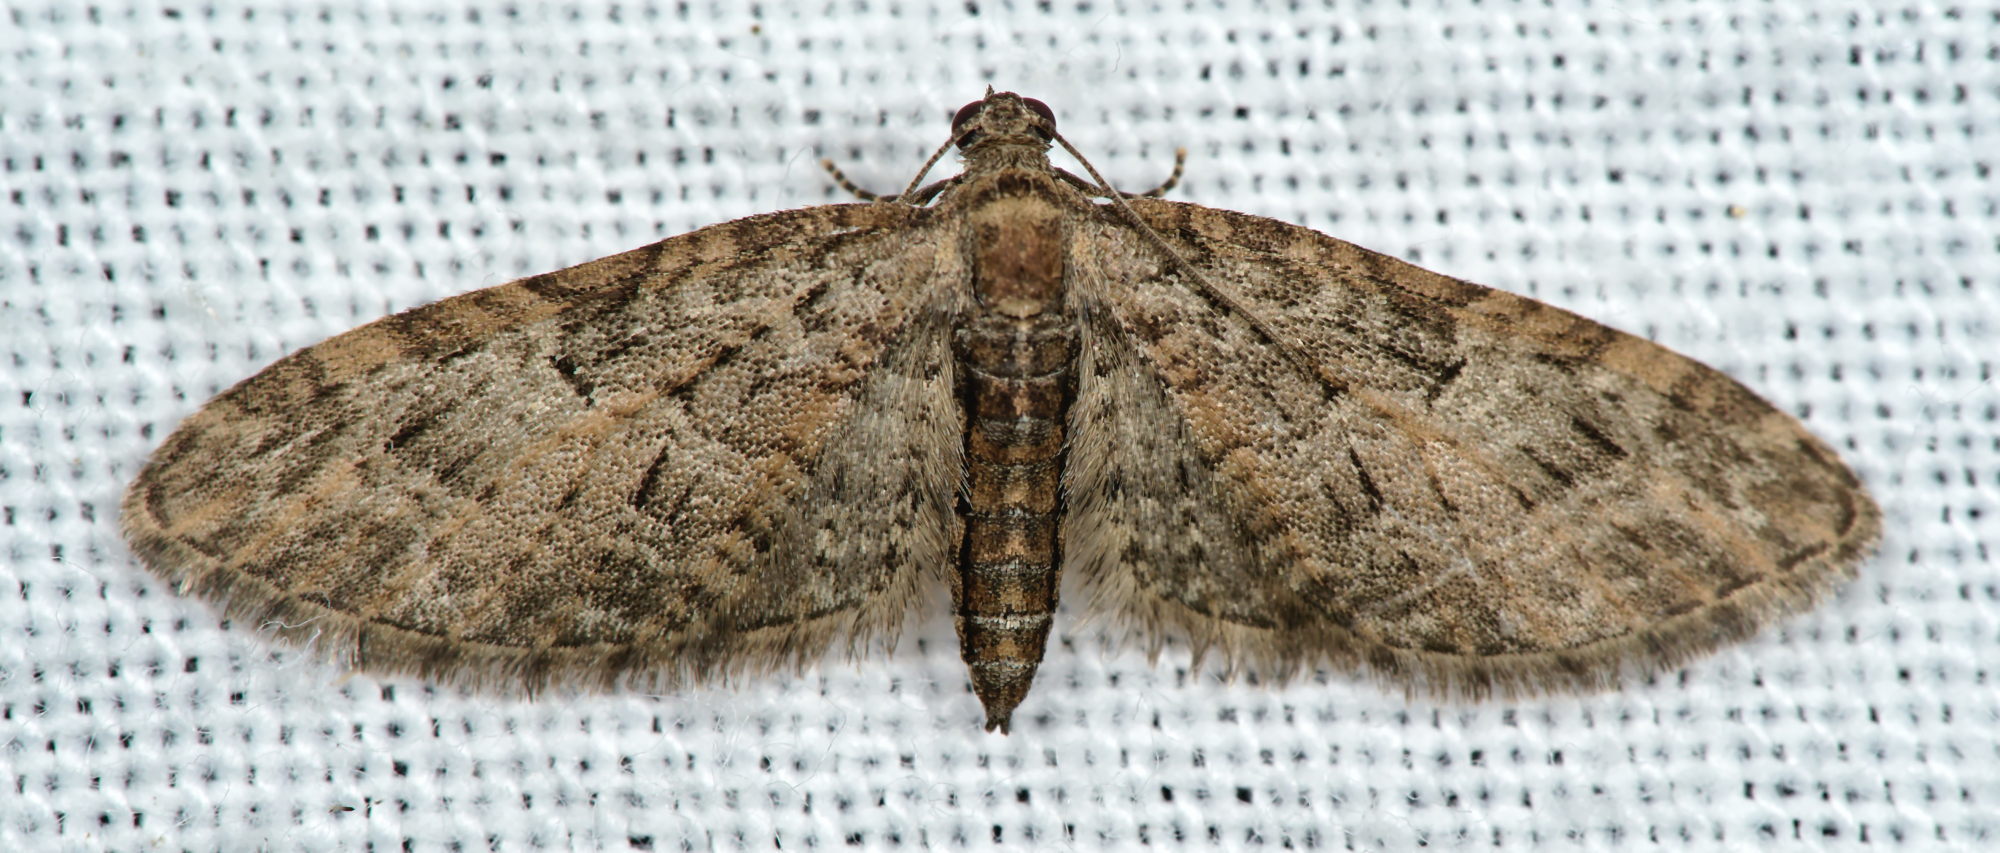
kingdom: Animalia
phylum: Arthropoda
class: Insecta
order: Lepidoptera
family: Geometridae
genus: Eupithecia
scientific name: Eupithecia abbreviata
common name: Brindled pug
